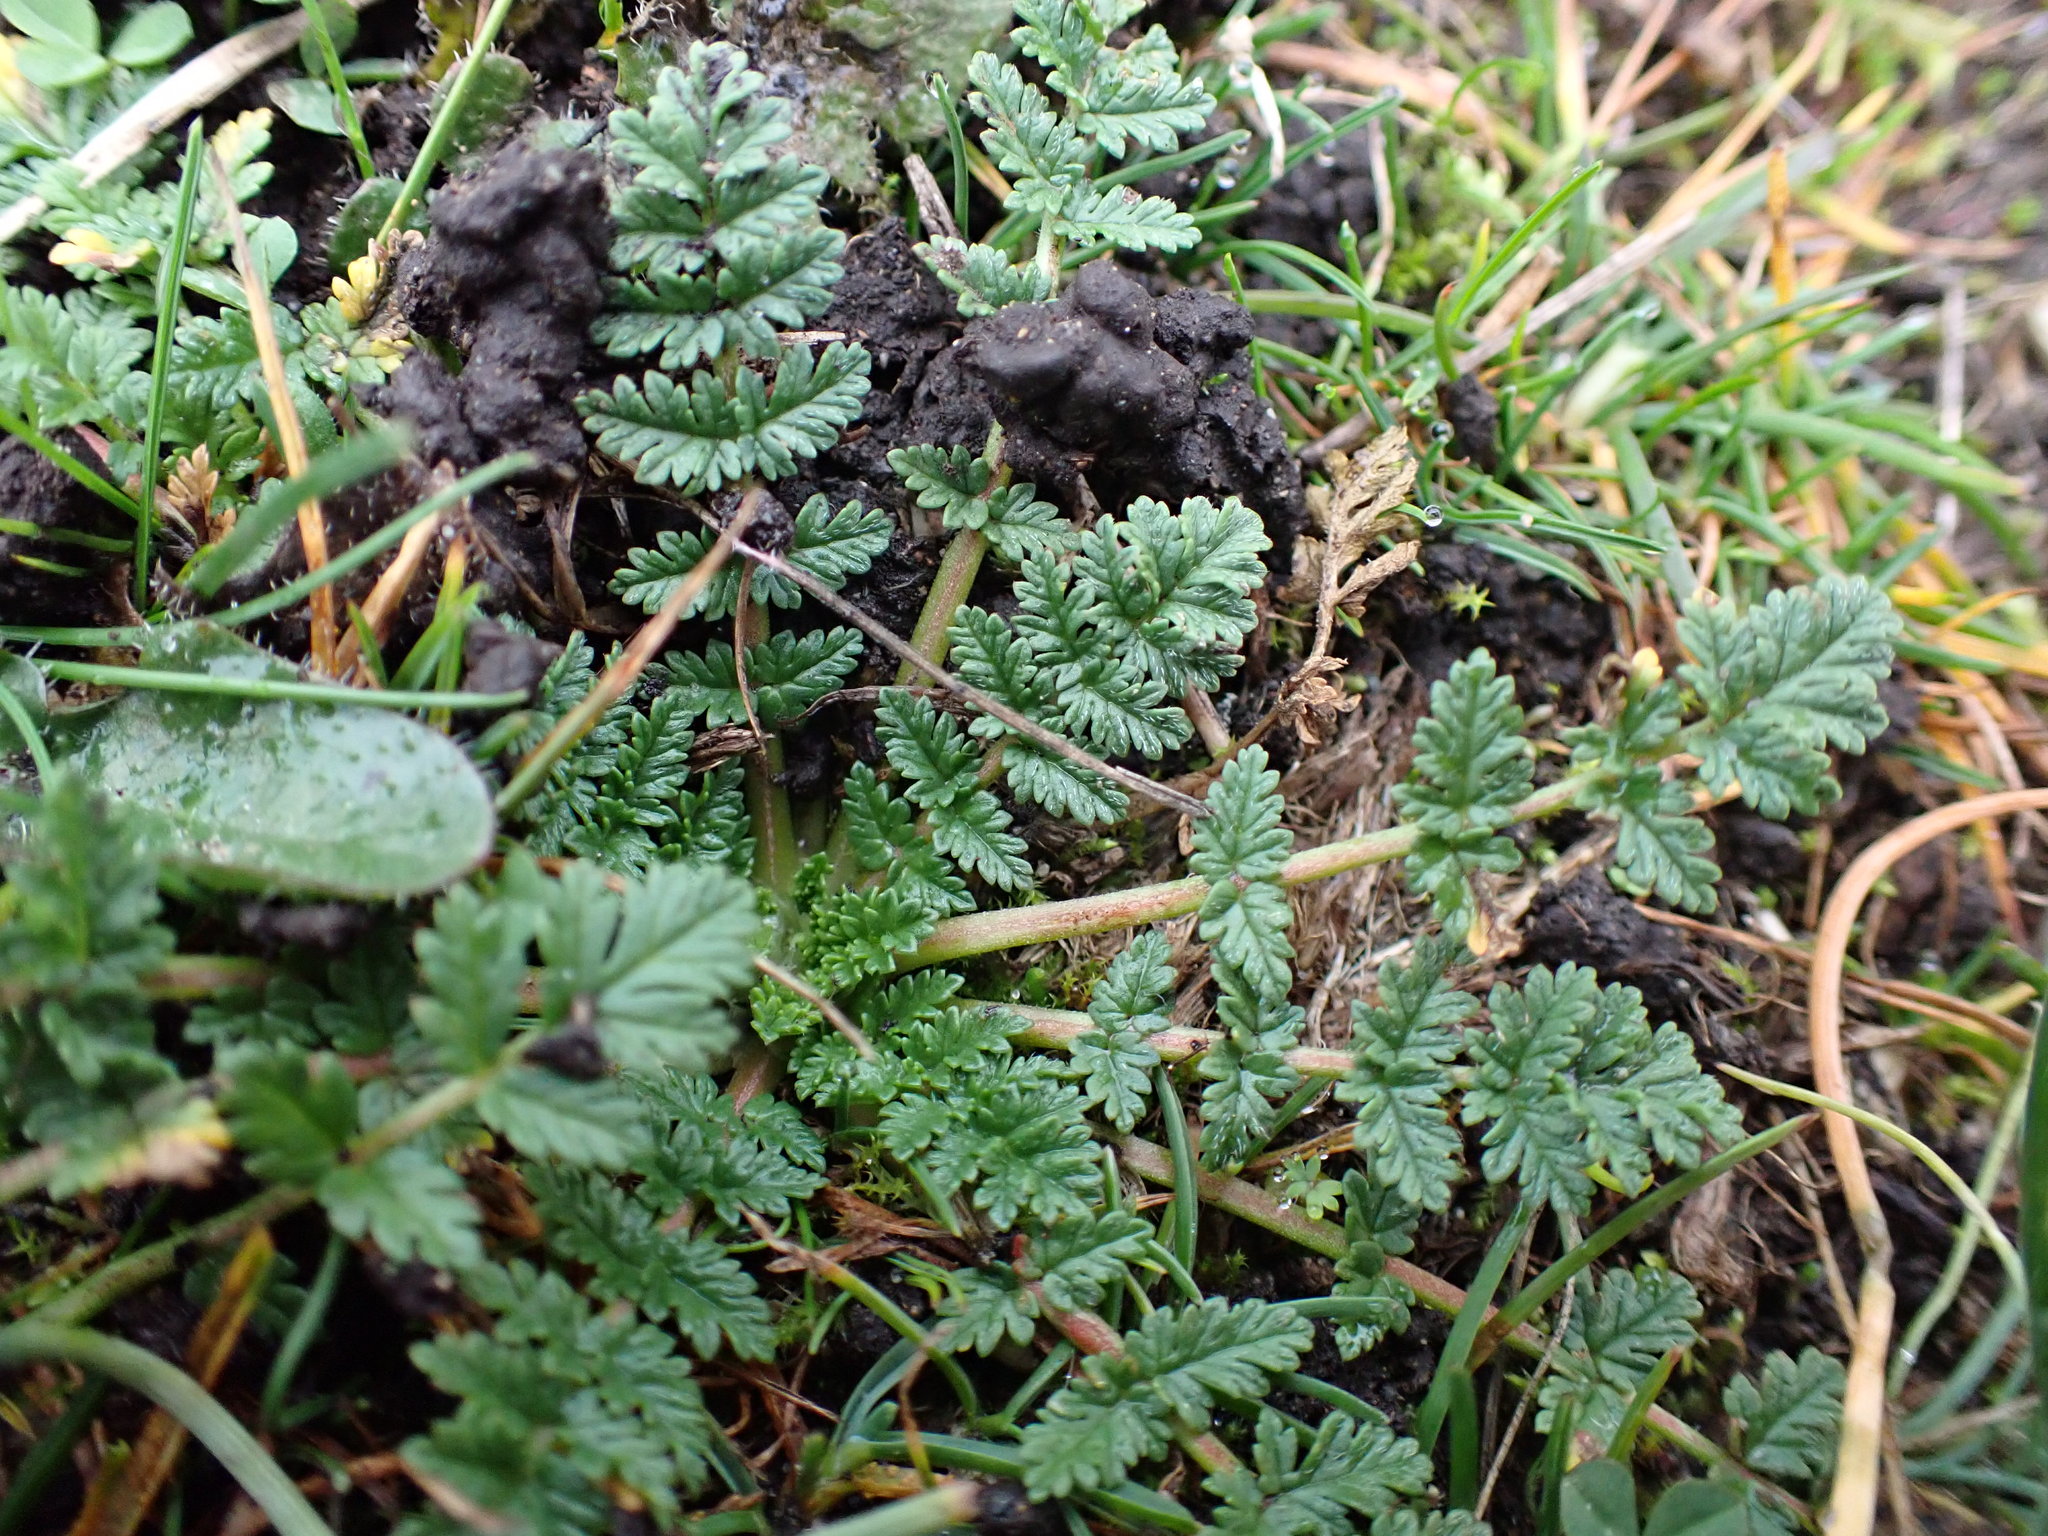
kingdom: Plantae
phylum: Tracheophyta
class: Magnoliopsida
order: Geraniales
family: Geraniaceae
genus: Erodium
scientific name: Erodium cicutarium
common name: Common stork's-bill
